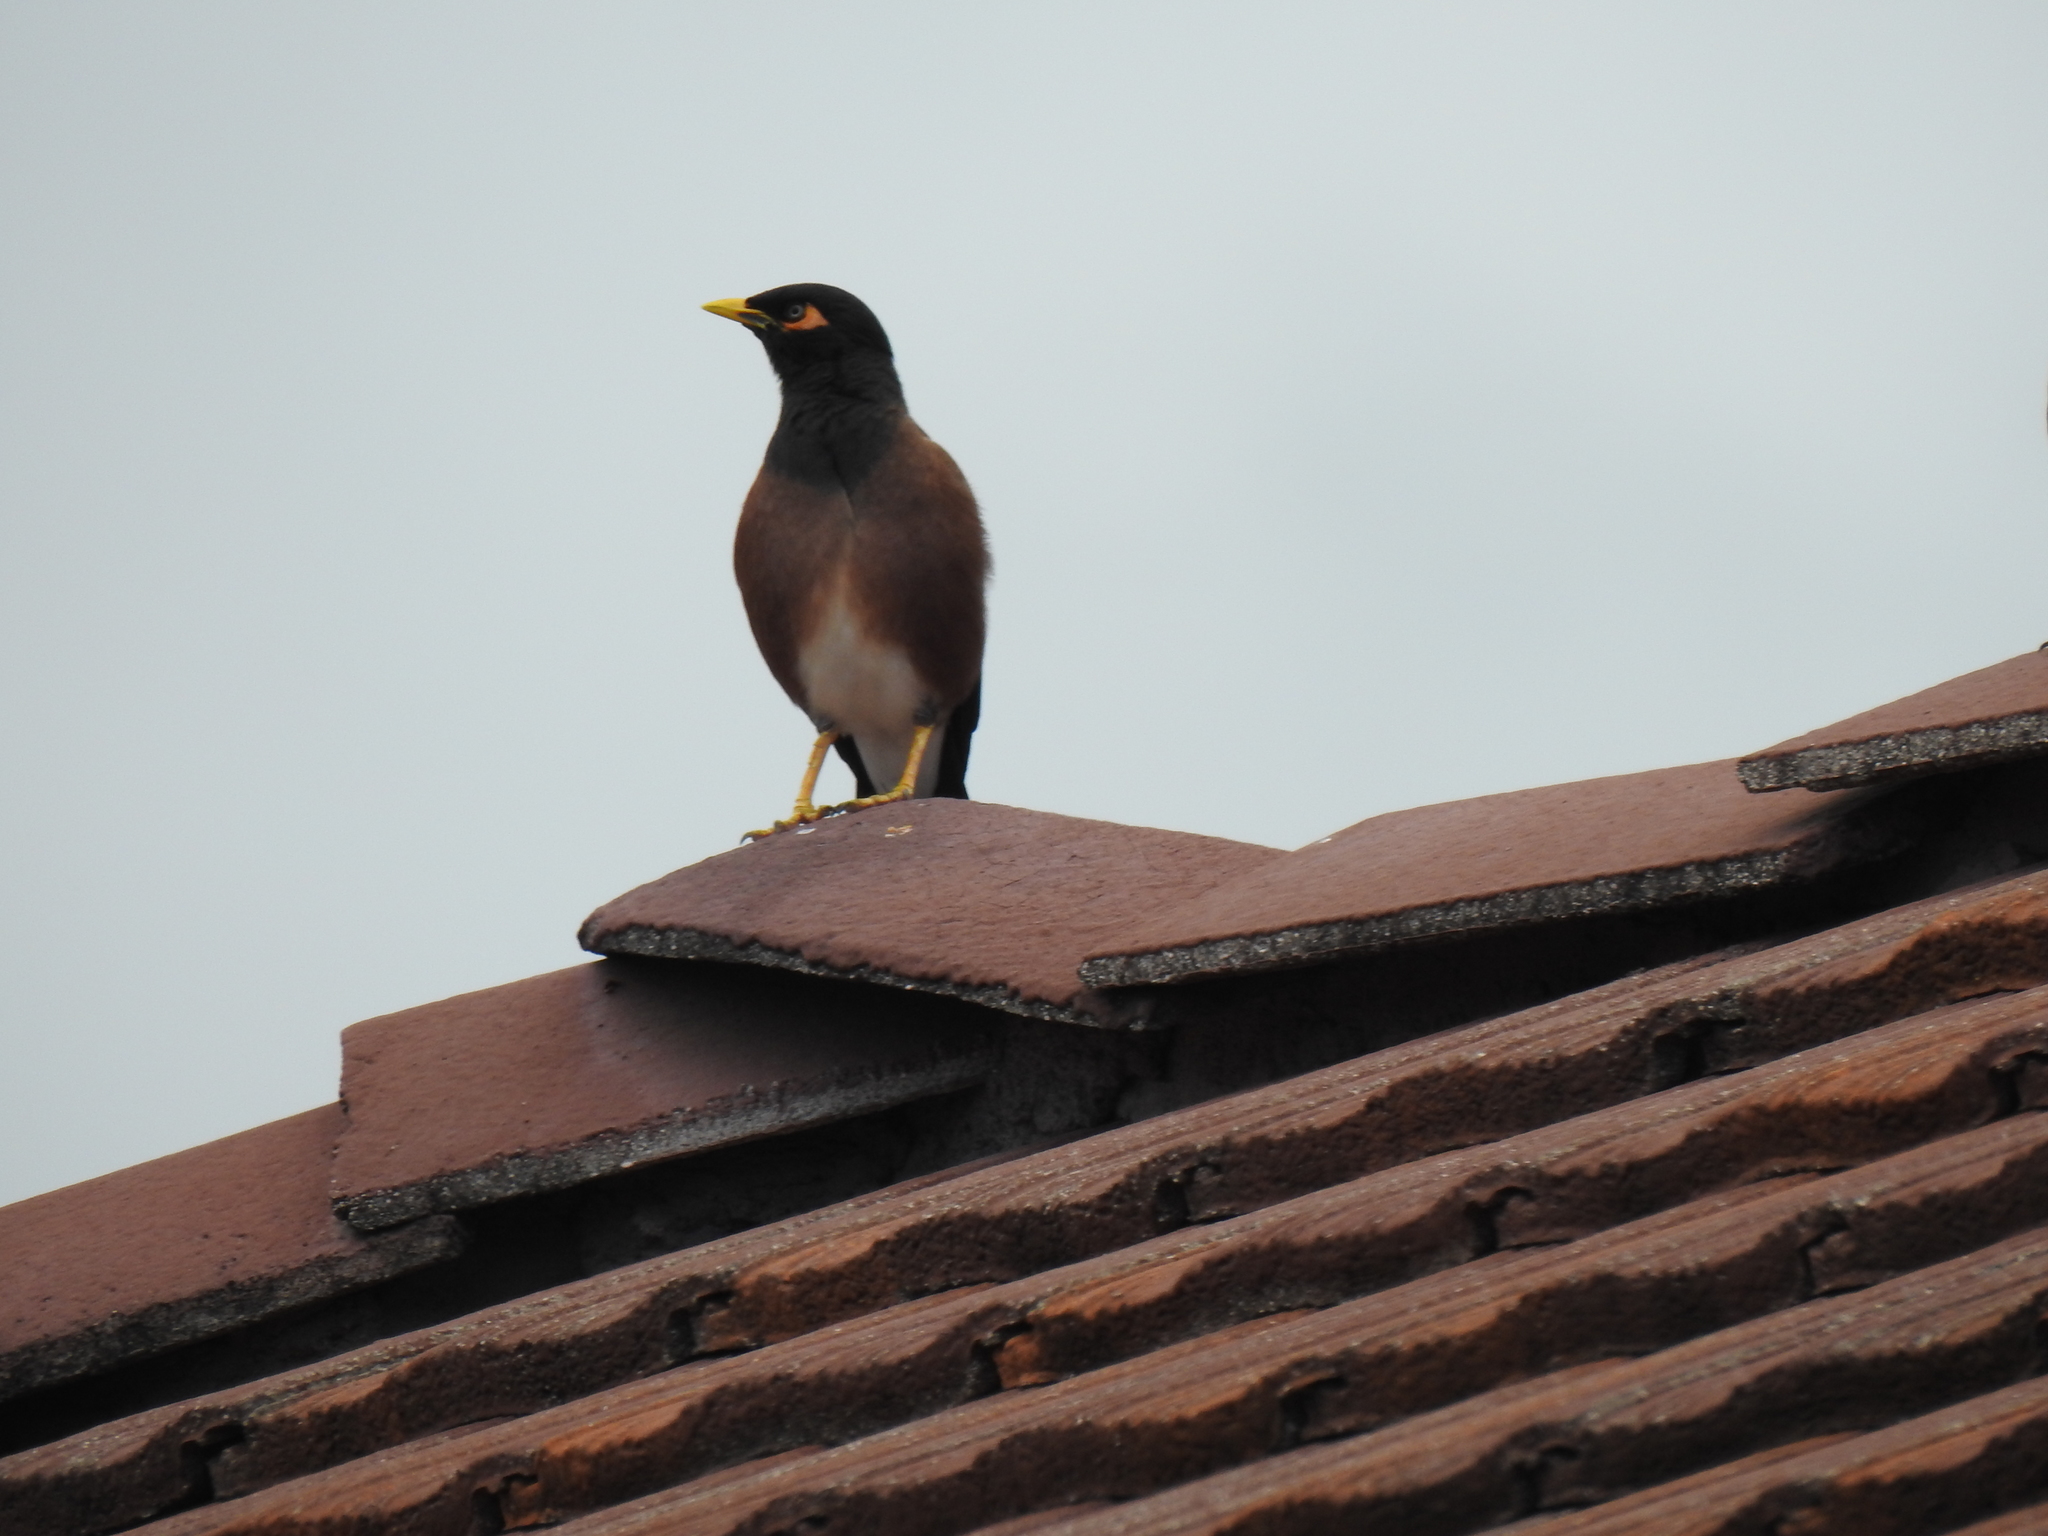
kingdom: Animalia
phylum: Chordata
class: Aves
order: Passeriformes
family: Sturnidae
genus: Acridotheres
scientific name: Acridotheres tristis
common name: Common myna
